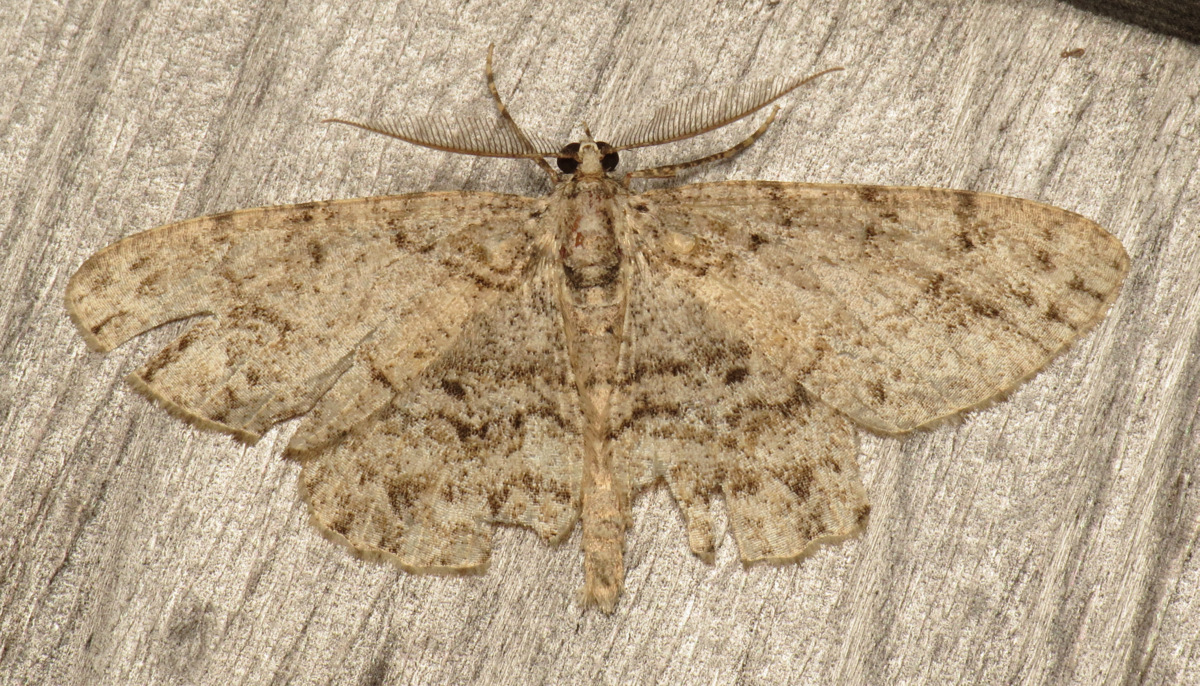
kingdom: Animalia
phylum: Arthropoda
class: Insecta
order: Lepidoptera
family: Geometridae
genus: Protoboarmia
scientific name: Protoboarmia porcelaria
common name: Porcelain gray
